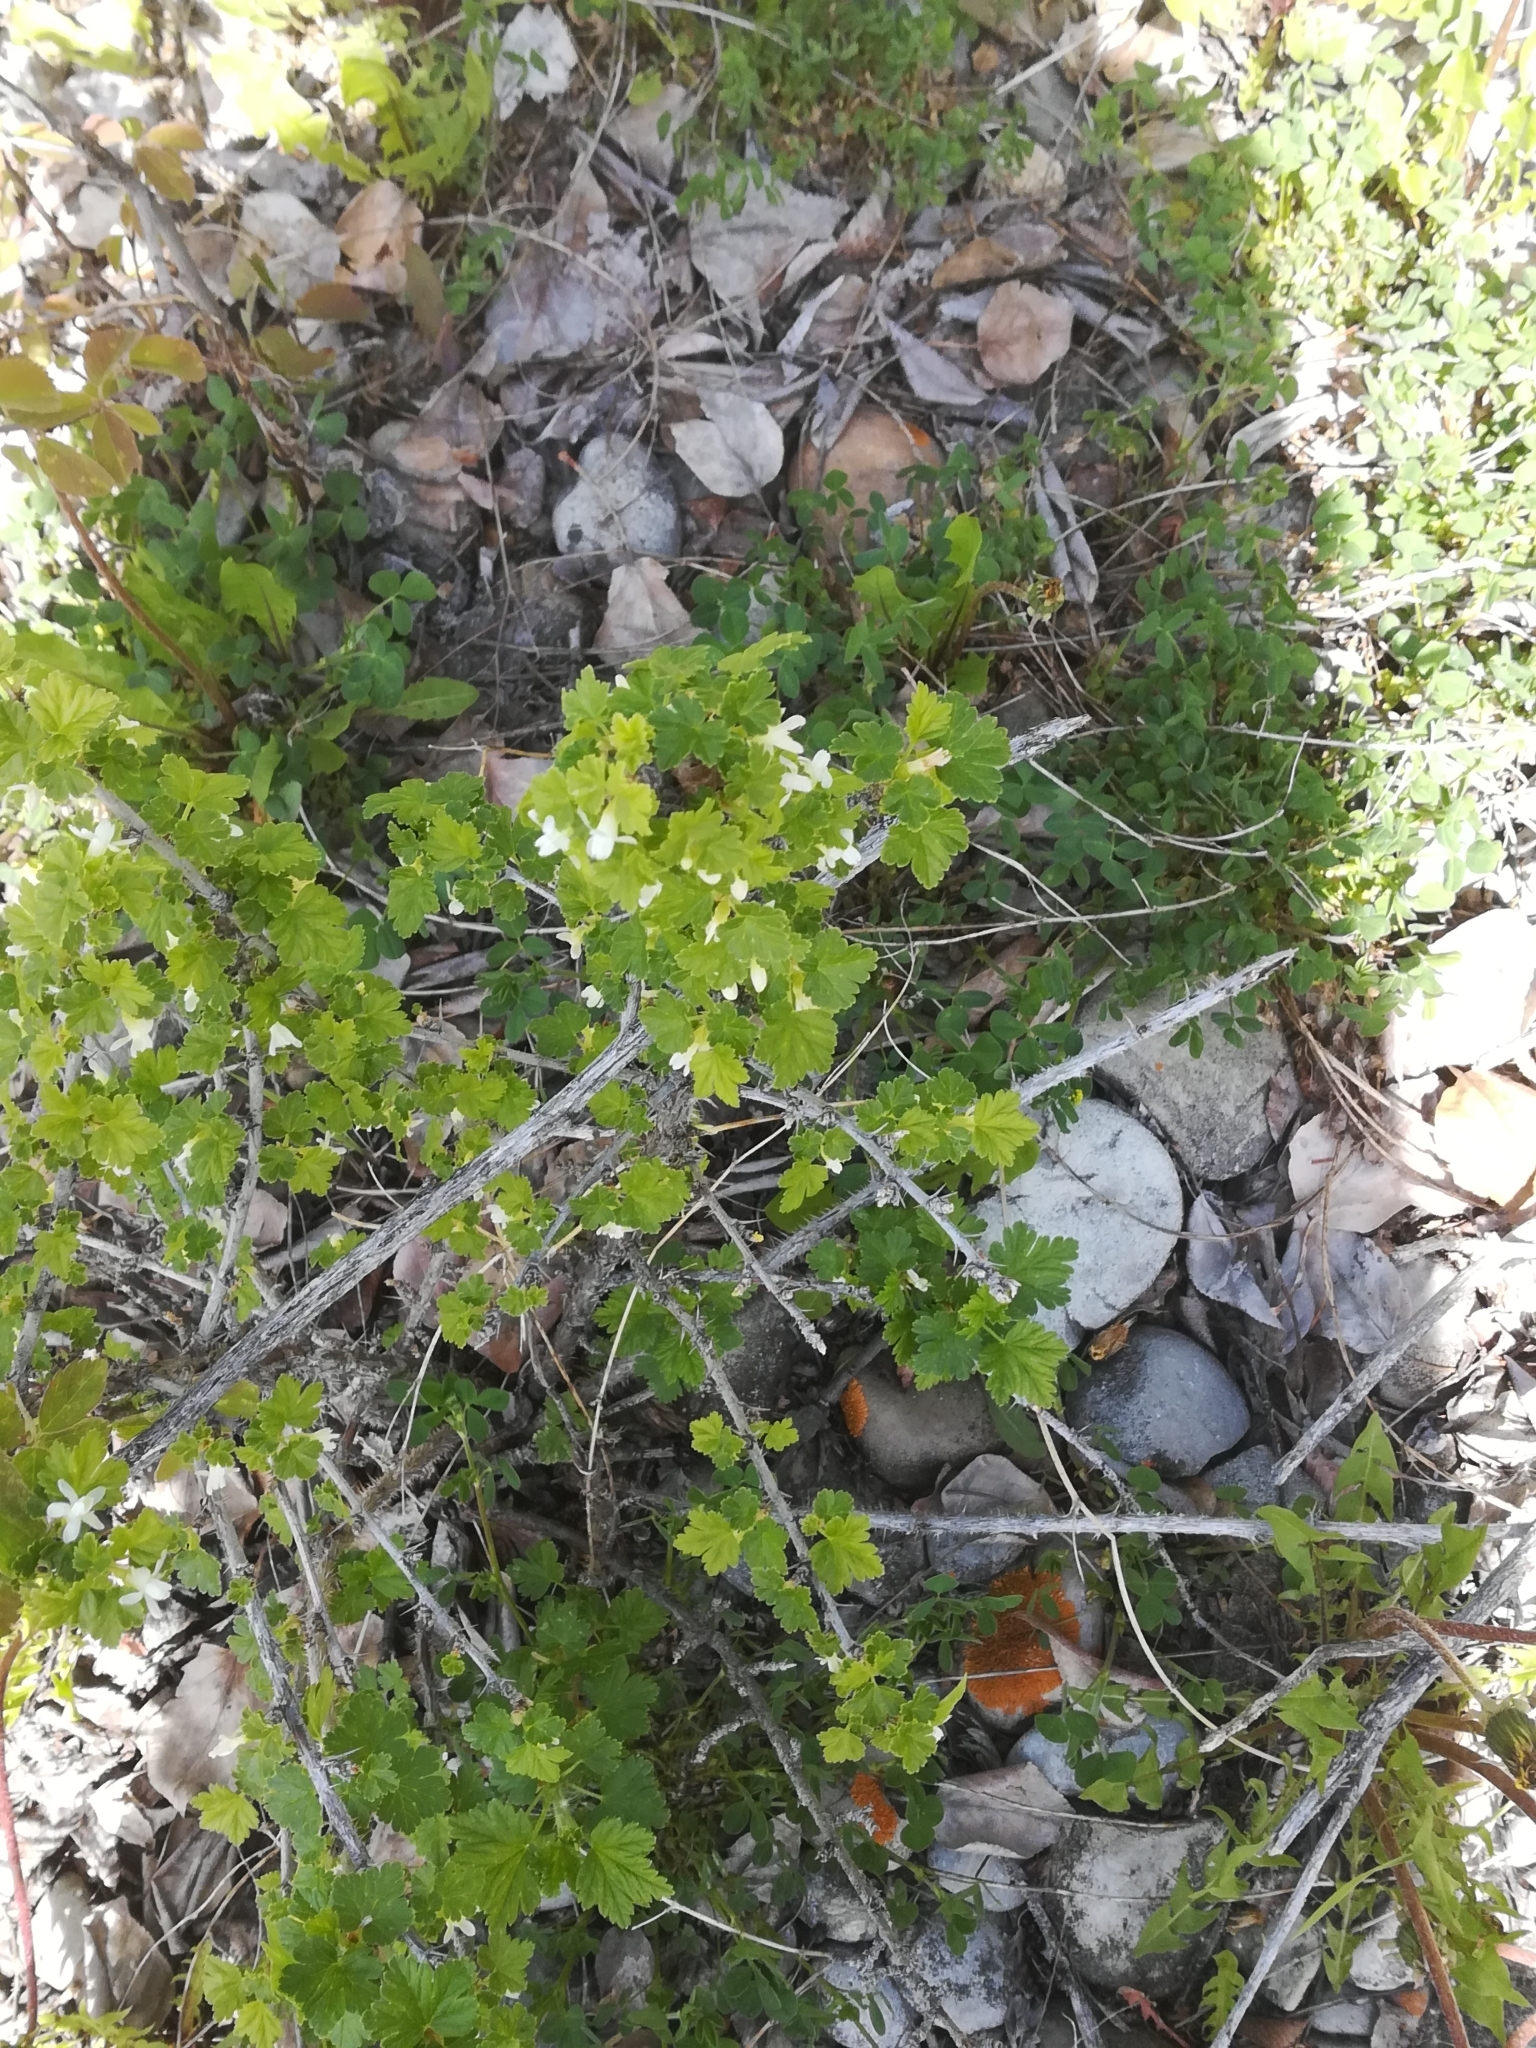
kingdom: Plantae
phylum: Tracheophyta
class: Magnoliopsida
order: Saxifragales
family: Grossulariaceae
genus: Ribes
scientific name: Ribes oxyacanthoides
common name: Northern gooseberry
